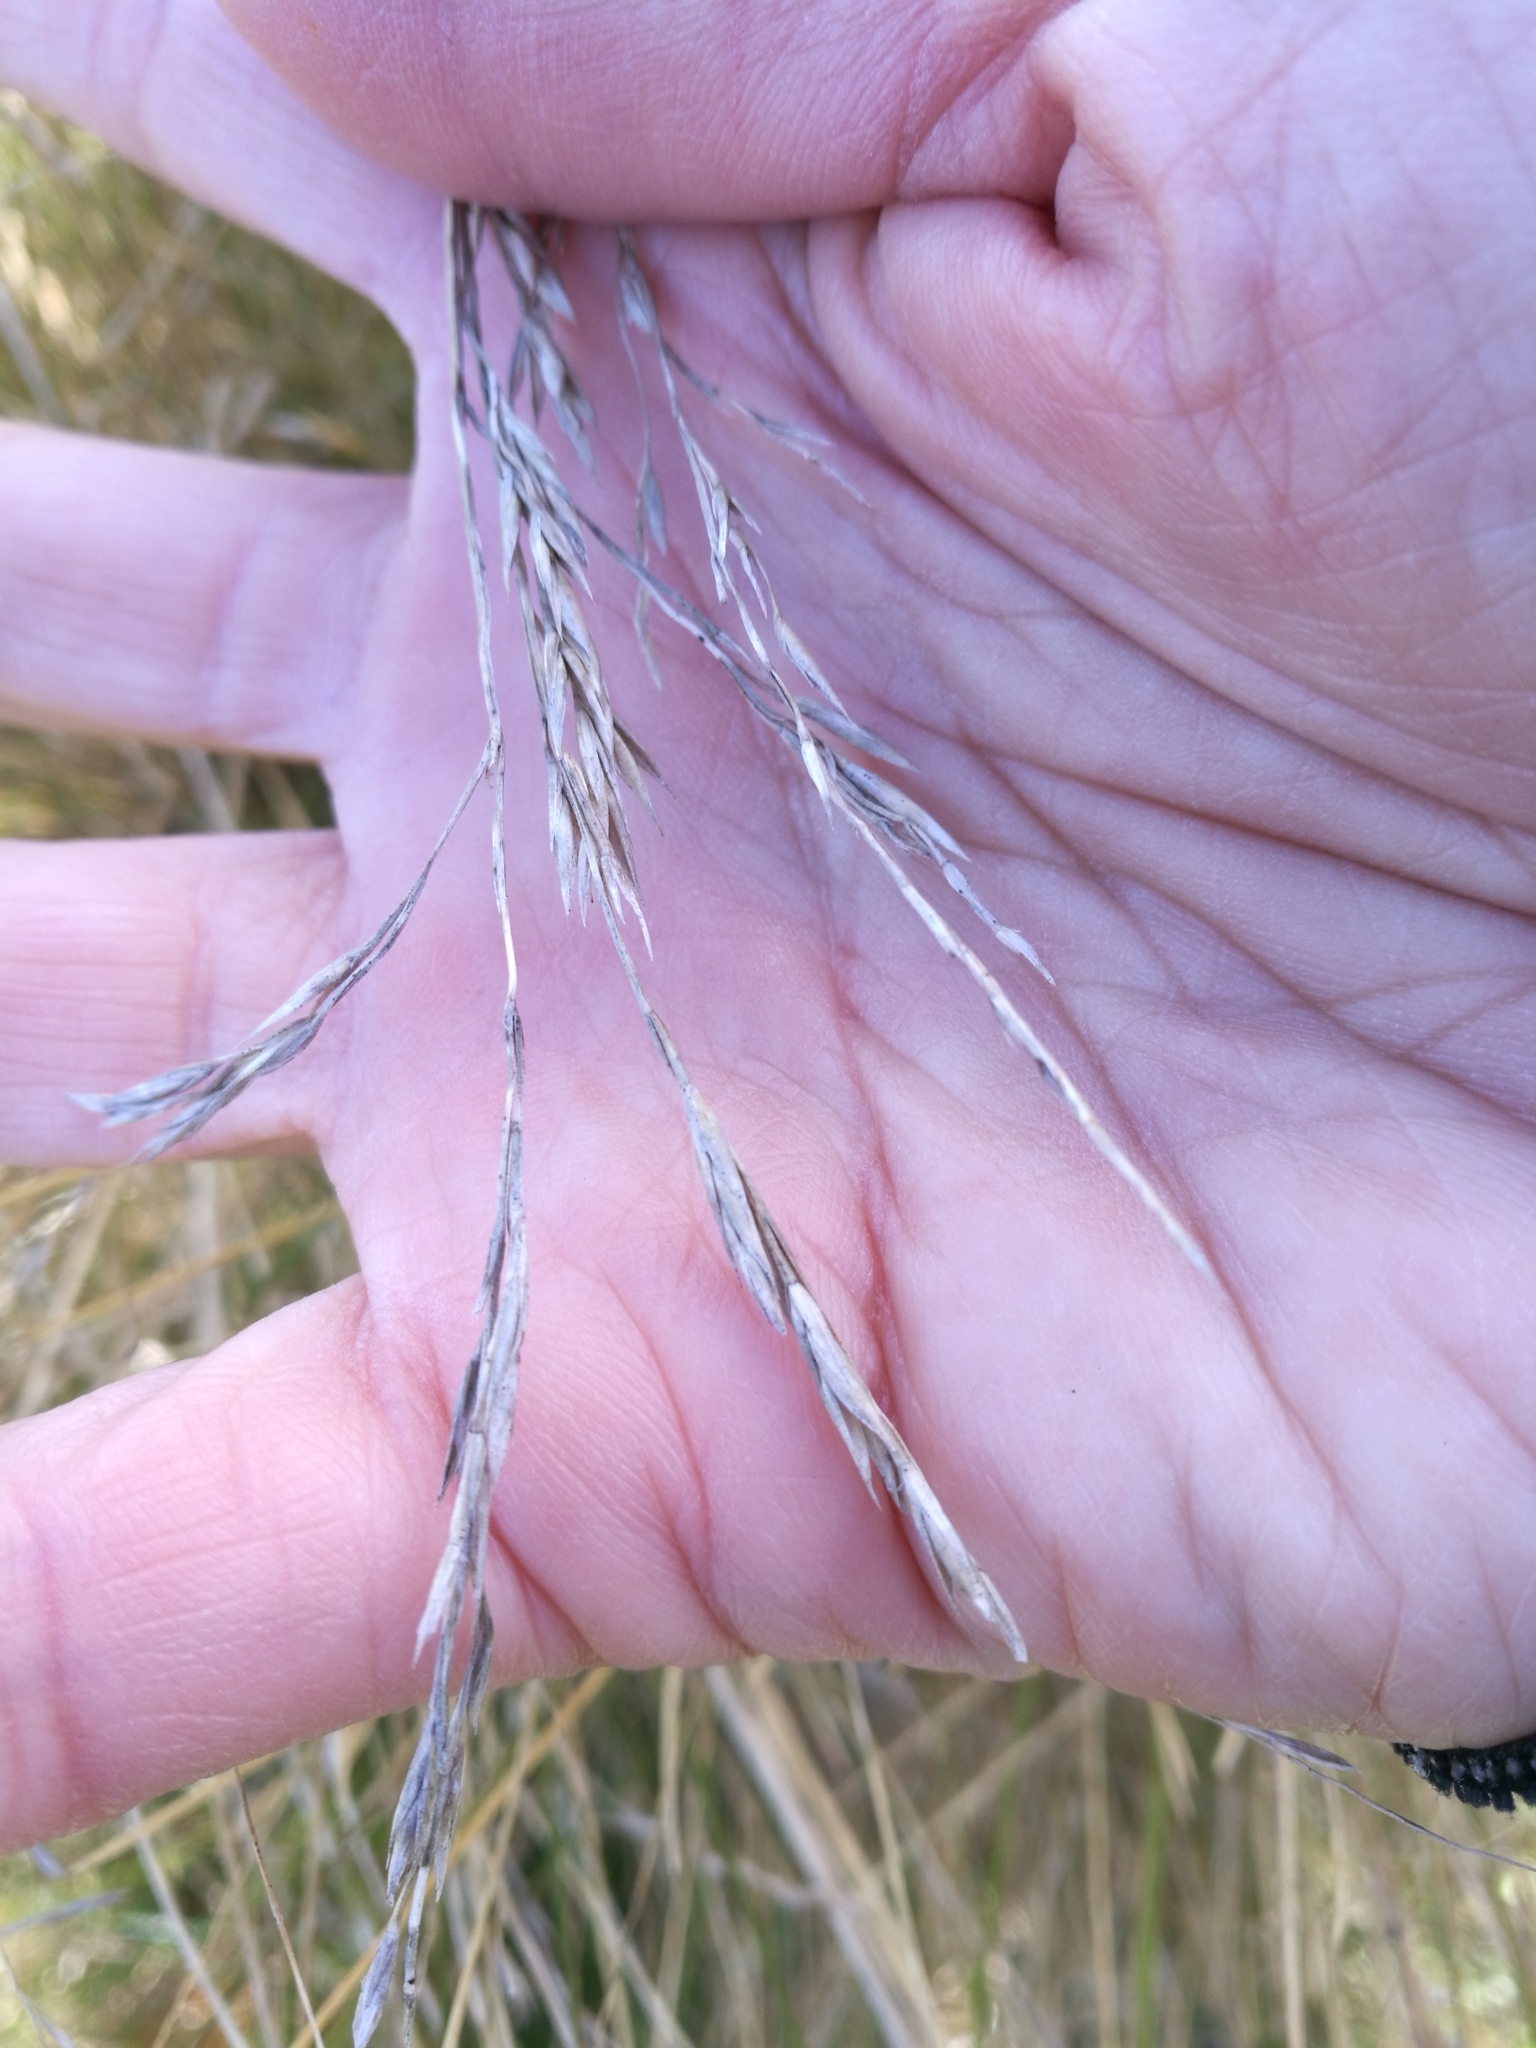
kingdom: Plantae
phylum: Tracheophyta
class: Liliopsida
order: Poales
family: Poaceae
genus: Poa
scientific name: Poa cita
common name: Silver tussock
